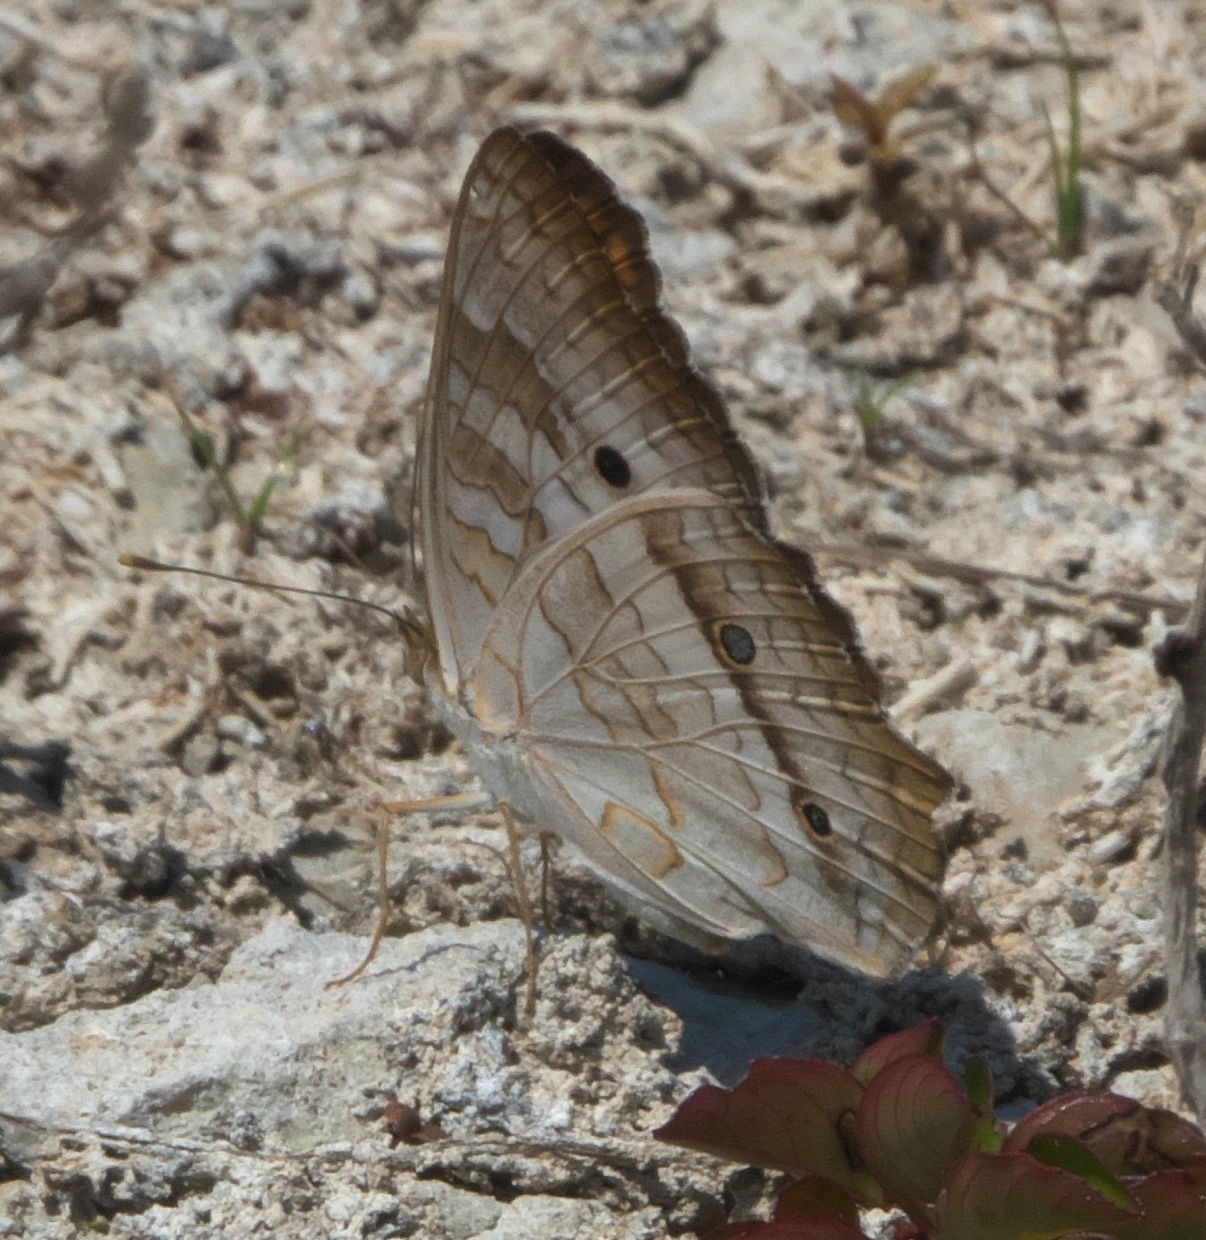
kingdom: Animalia
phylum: Arthropoda
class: Insecta
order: Lepidoptera
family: Nymphalidae
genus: Anartia
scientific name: Anartia jatrophae
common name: White peacock
